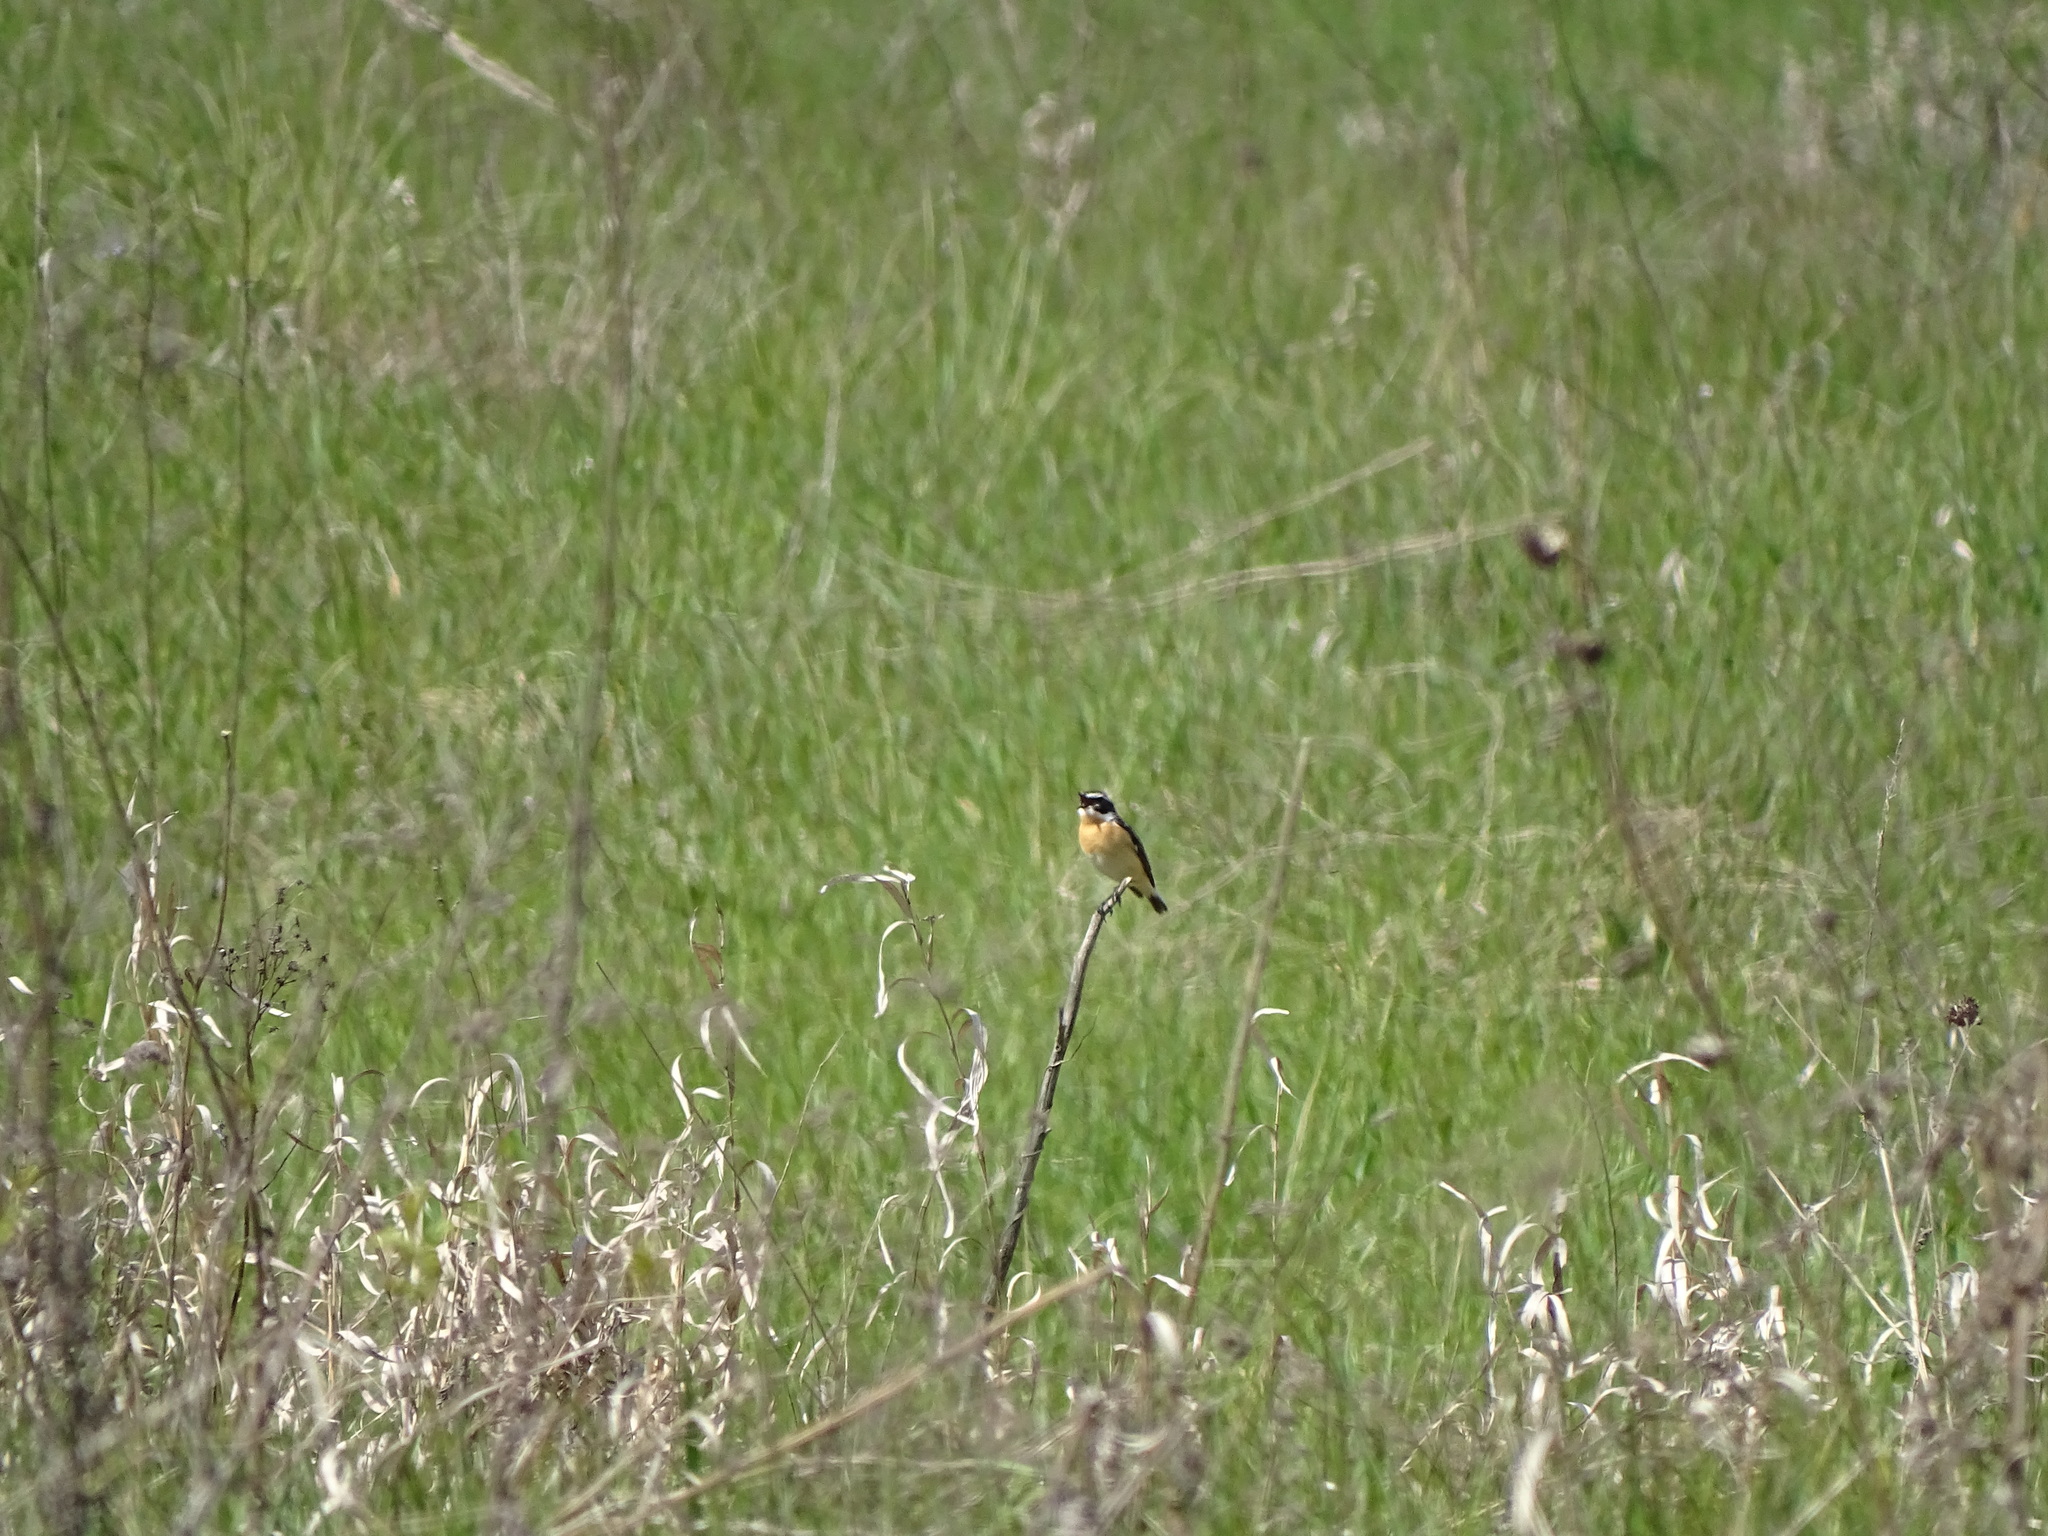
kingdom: Animalia
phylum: Chordata
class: Aves
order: Passeriformes
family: Muscicapidae
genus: Saxicola
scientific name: Saxicola rubetra
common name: Whinchat
